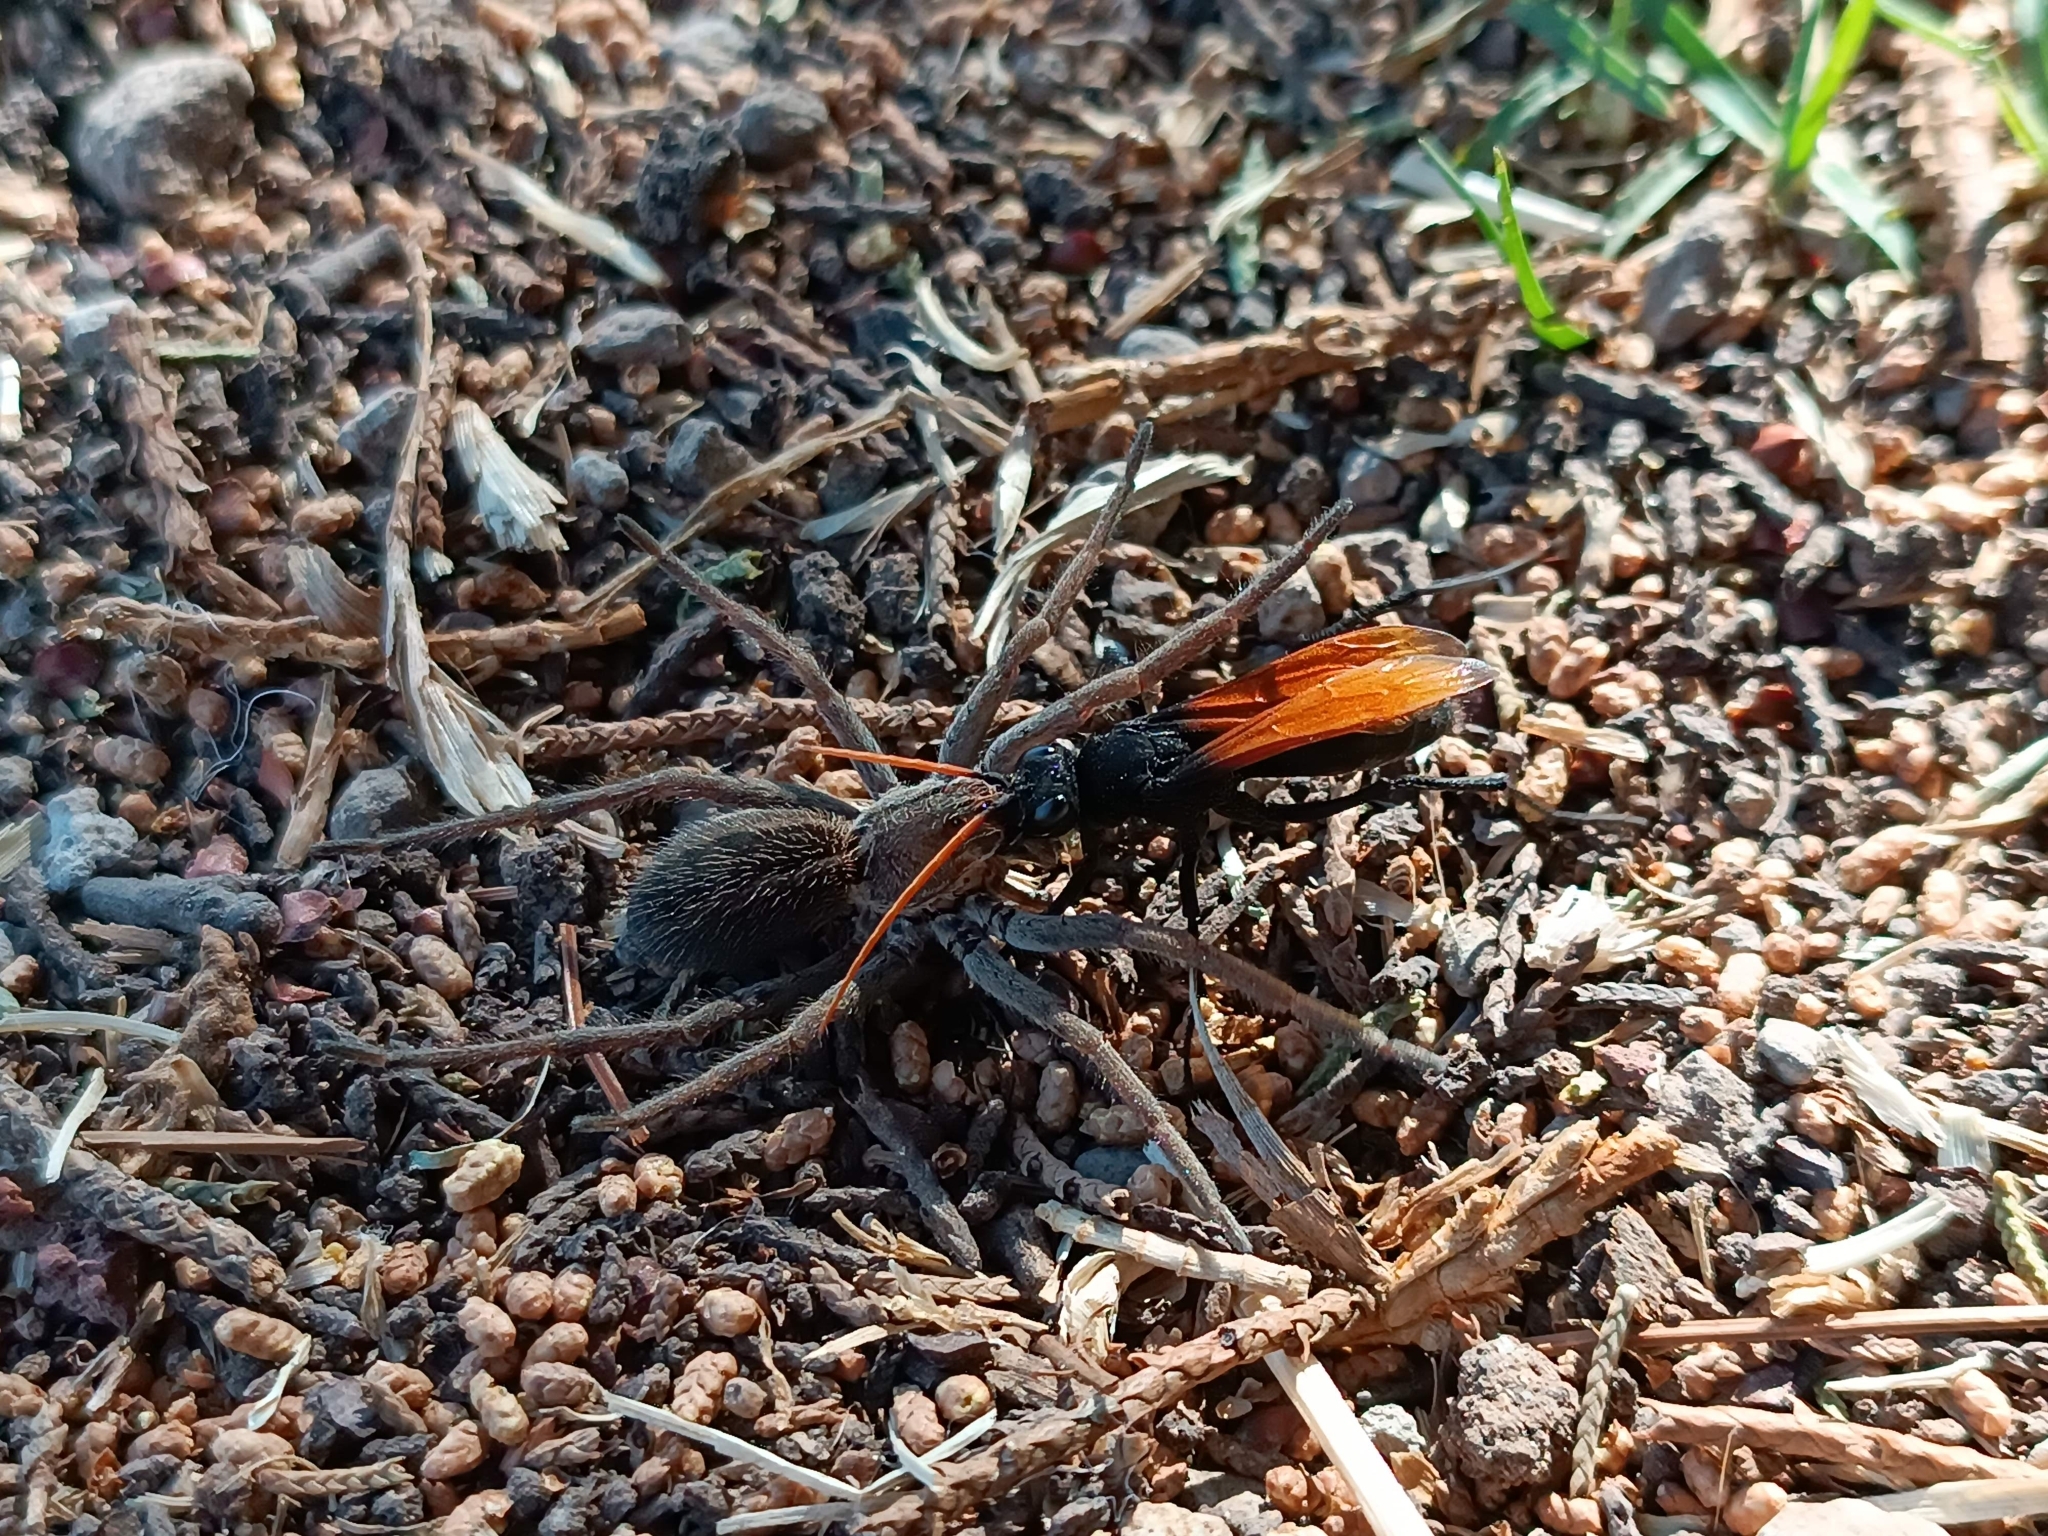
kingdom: Animalia
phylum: Arthropoda
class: Insecta
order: Hymenoptera
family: Pompilidae
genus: Entypus
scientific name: Entypus unifasciatus
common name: Eastern tawny-horned spider wasp
